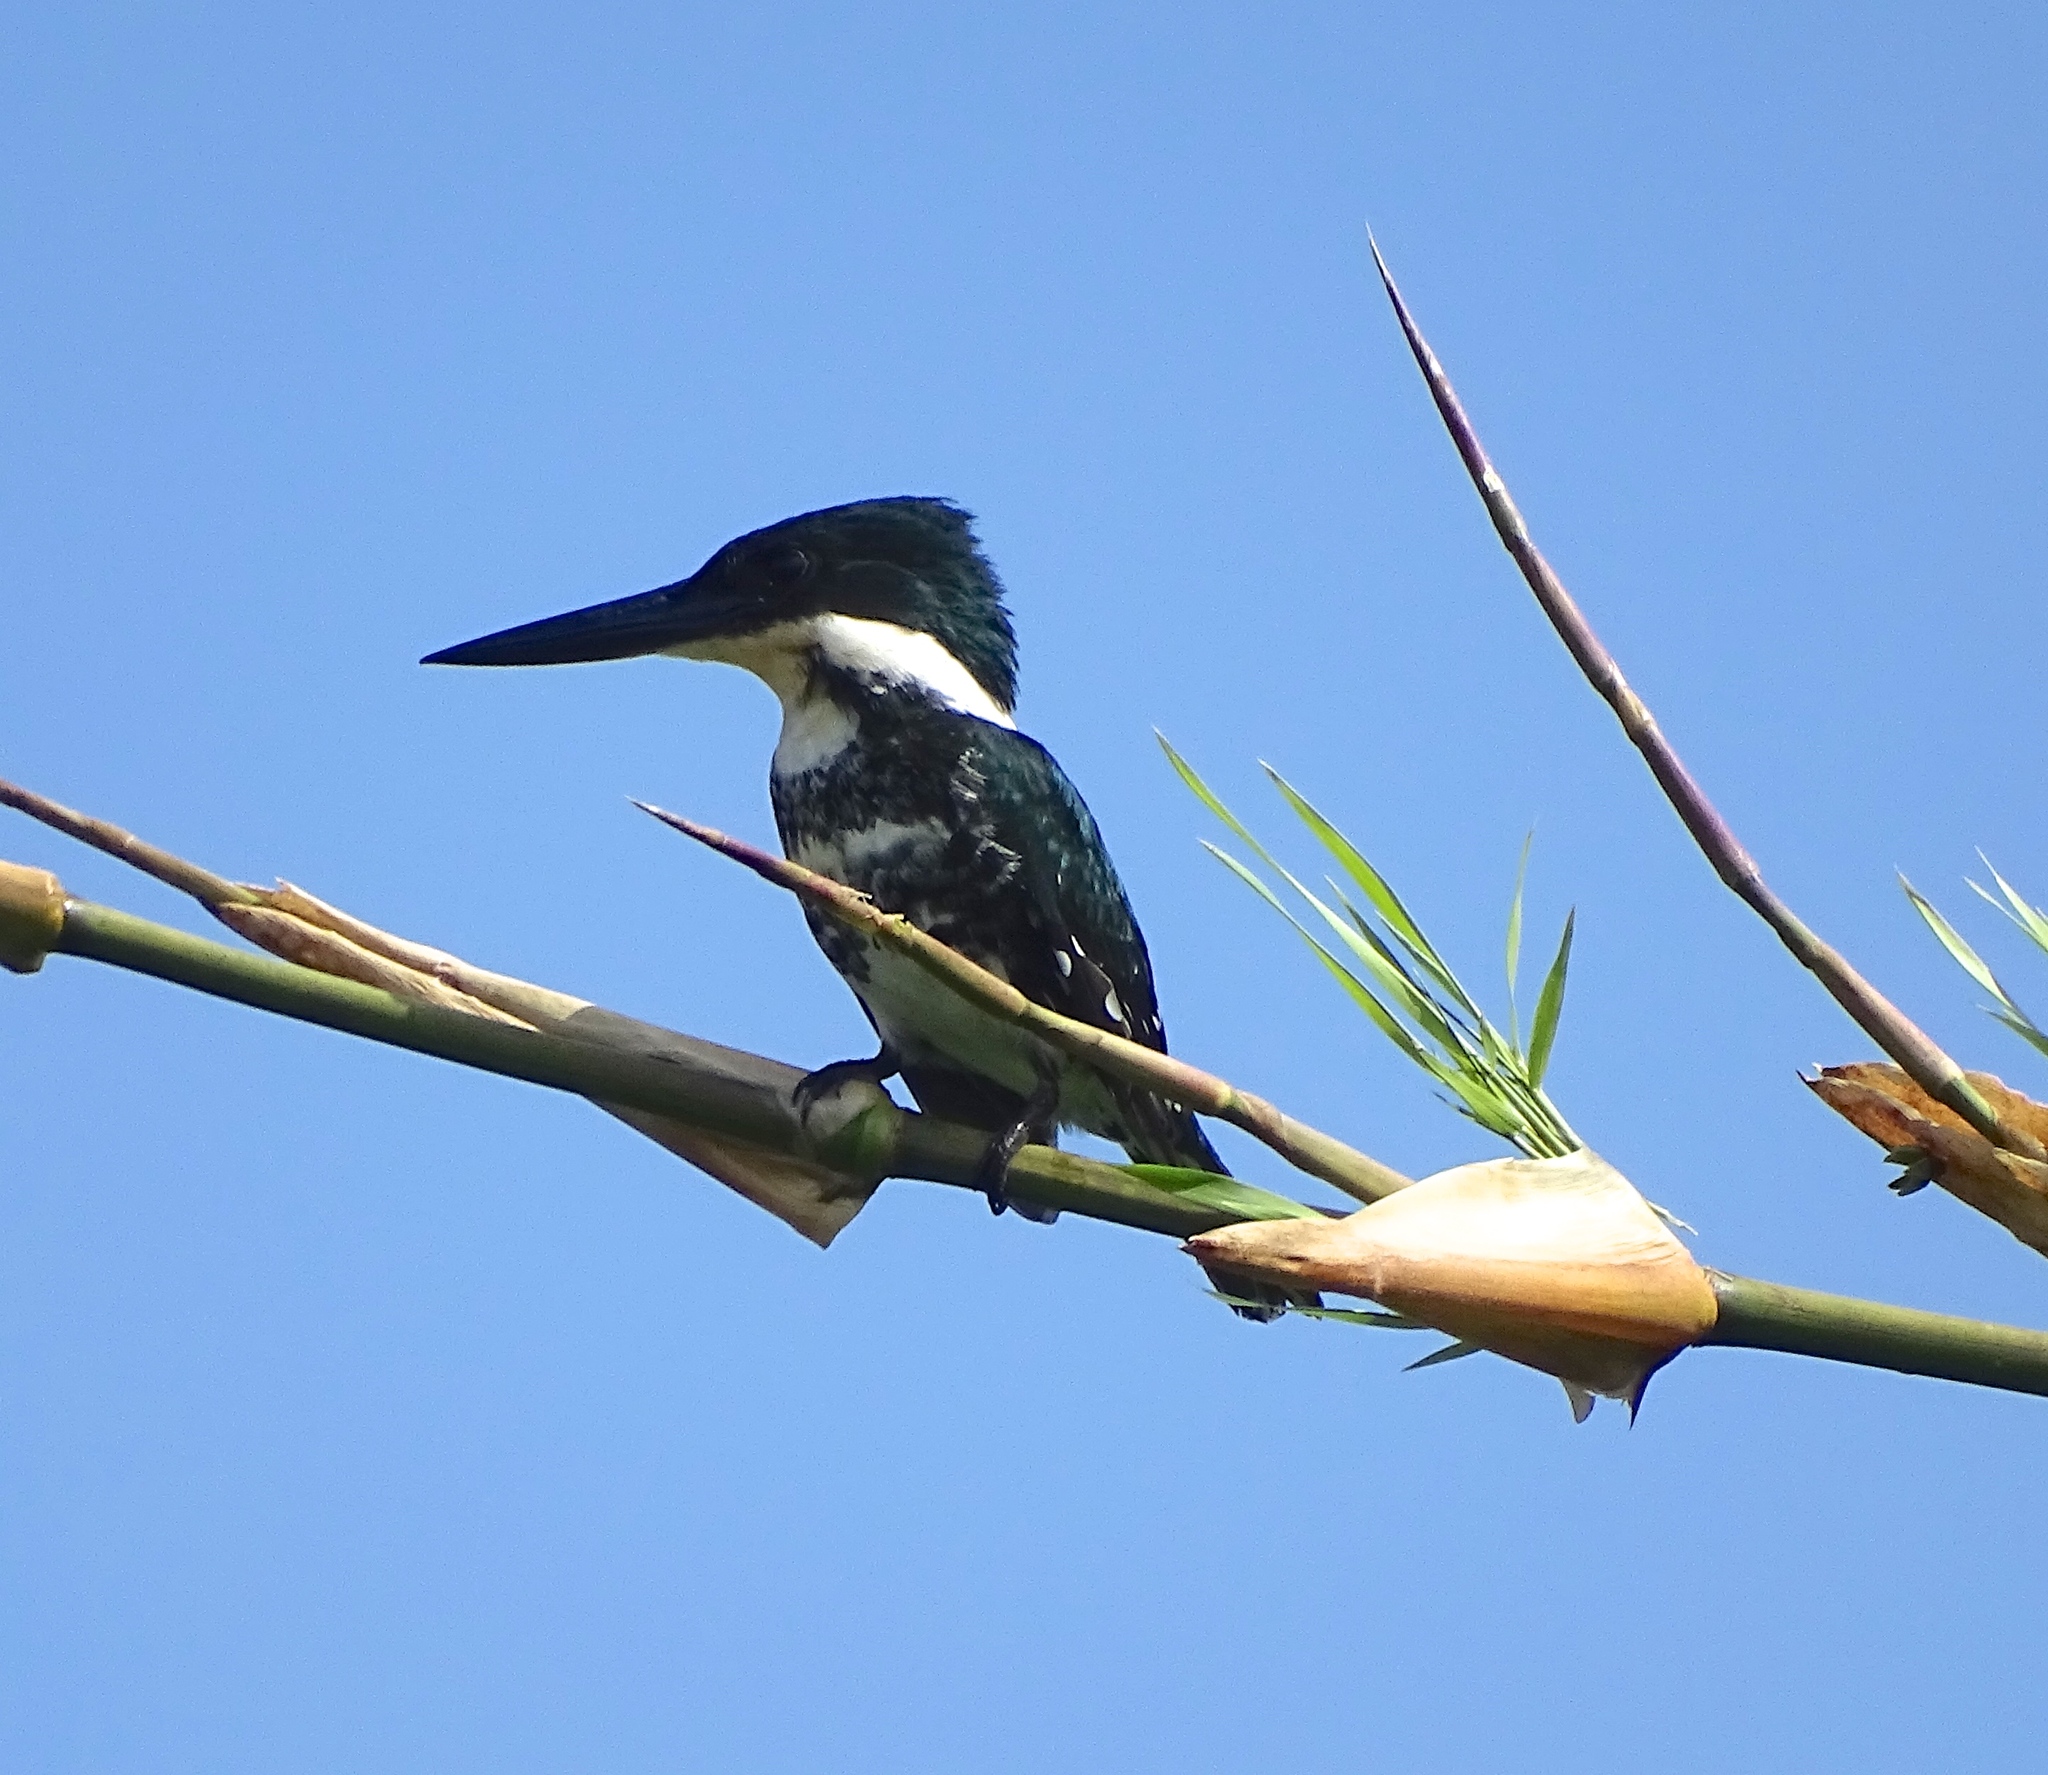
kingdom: Animalia
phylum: Chordata
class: Aves
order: Coraciiformes
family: Alcedinidae
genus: Chloroceryle
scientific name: Chloroceryle americana
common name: Green kingfisher
